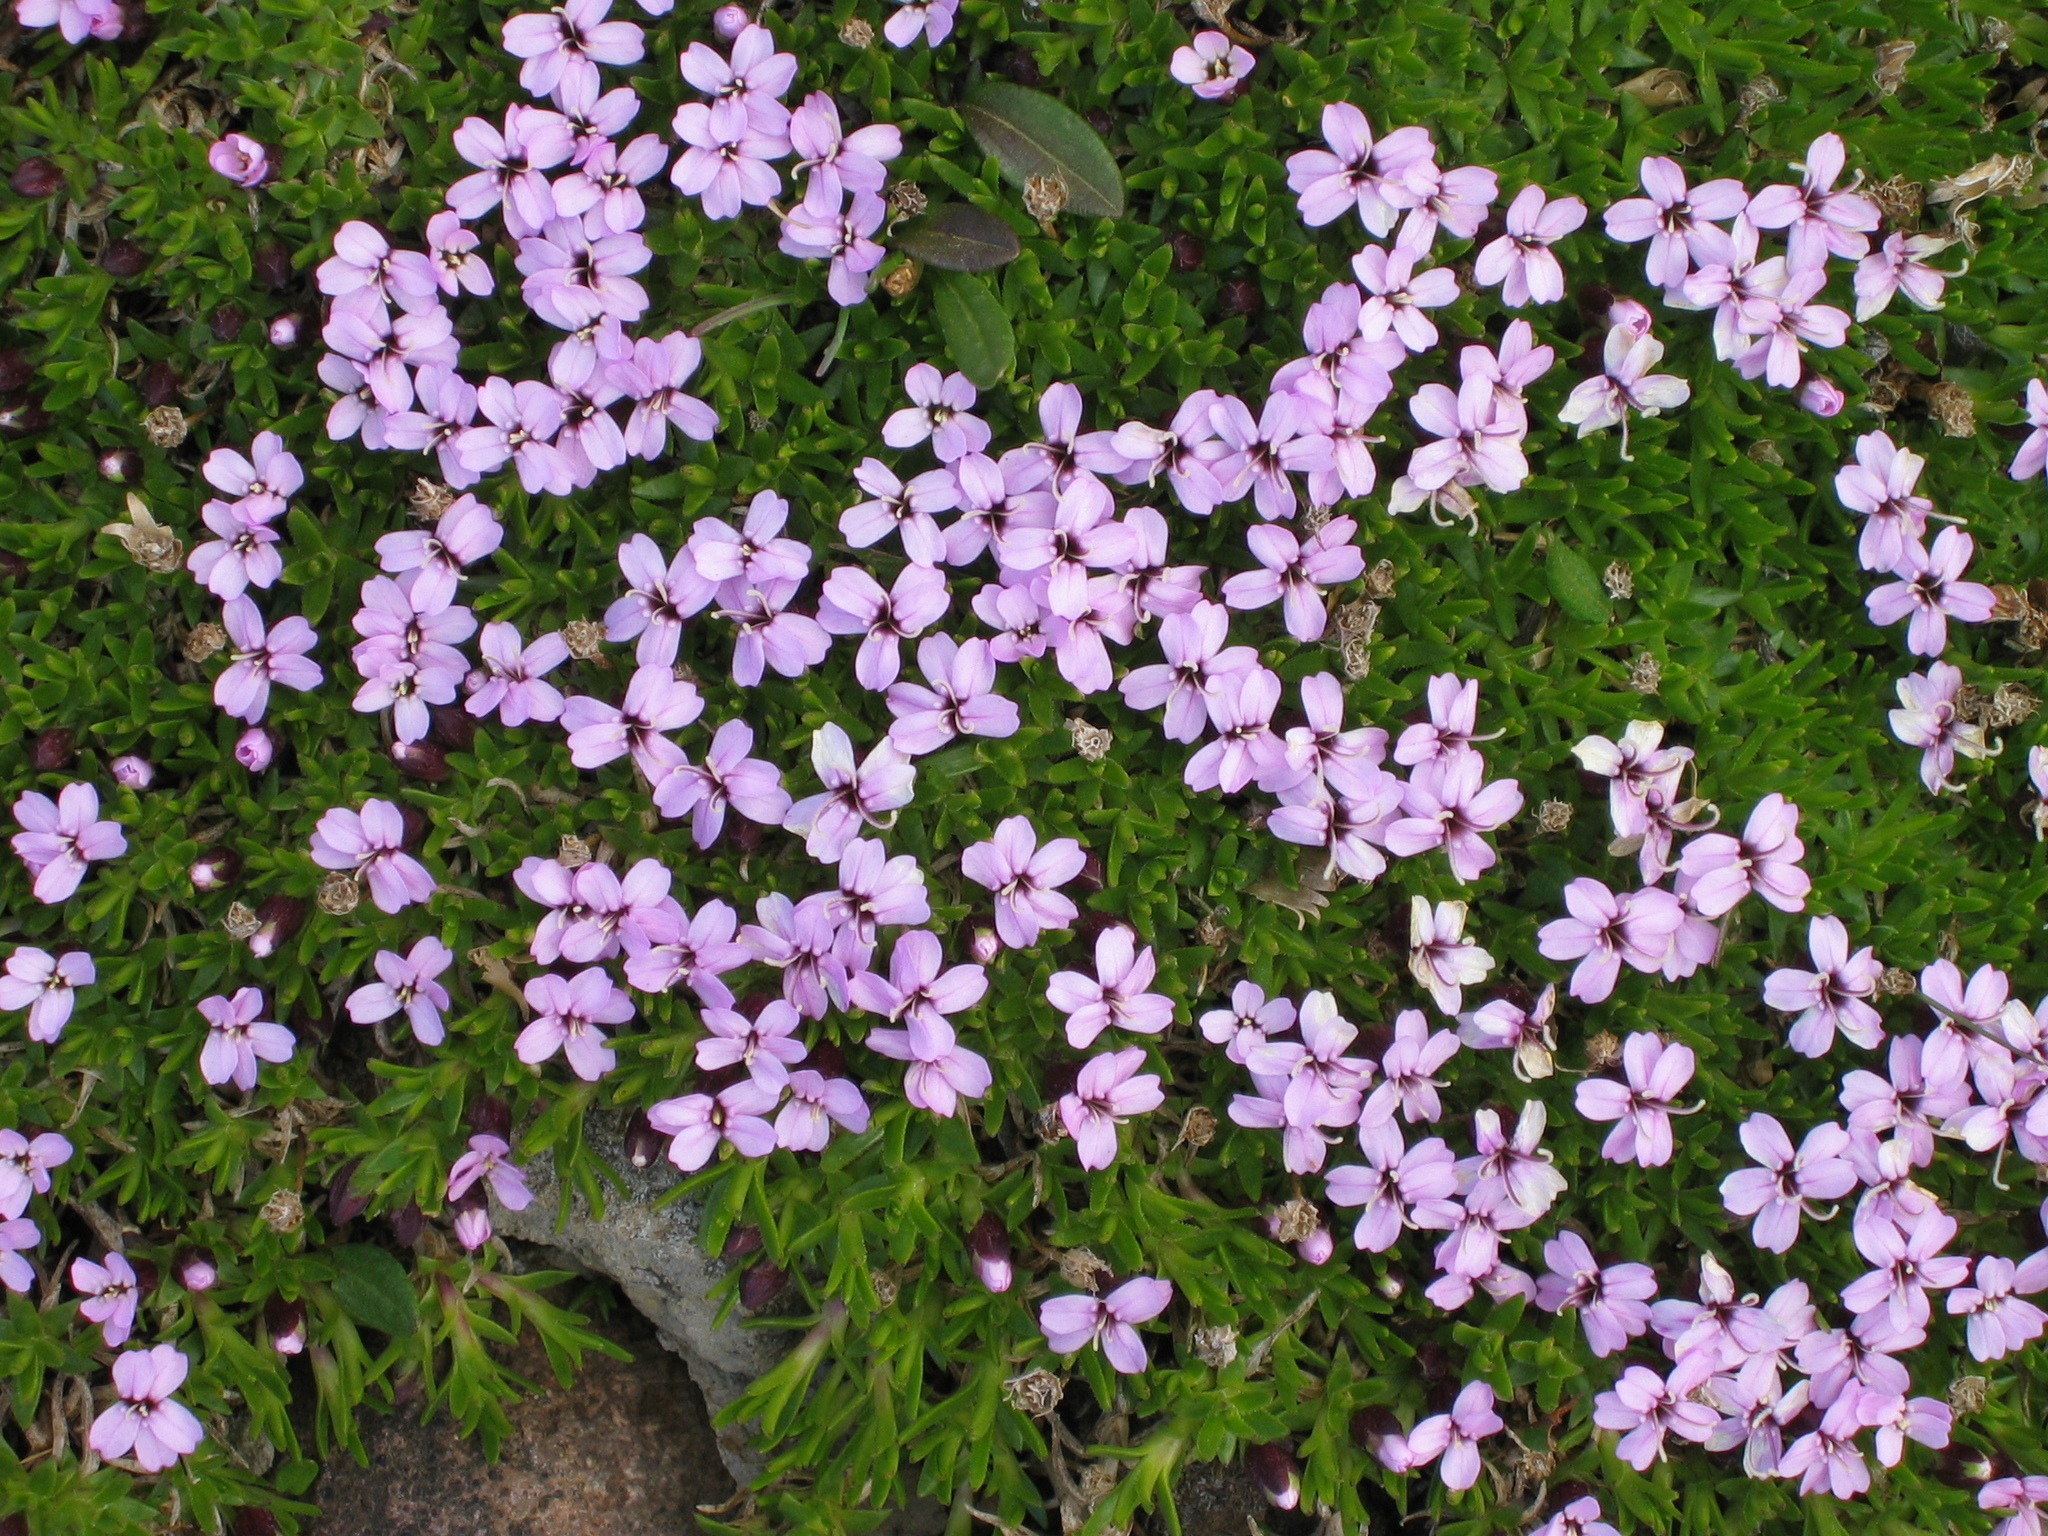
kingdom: Plantae
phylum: Tracheophyta
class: Magnoliopsida
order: Caryophyllales
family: Caryophyllaceae
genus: Silene
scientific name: Silene acaulis
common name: Moss campion
